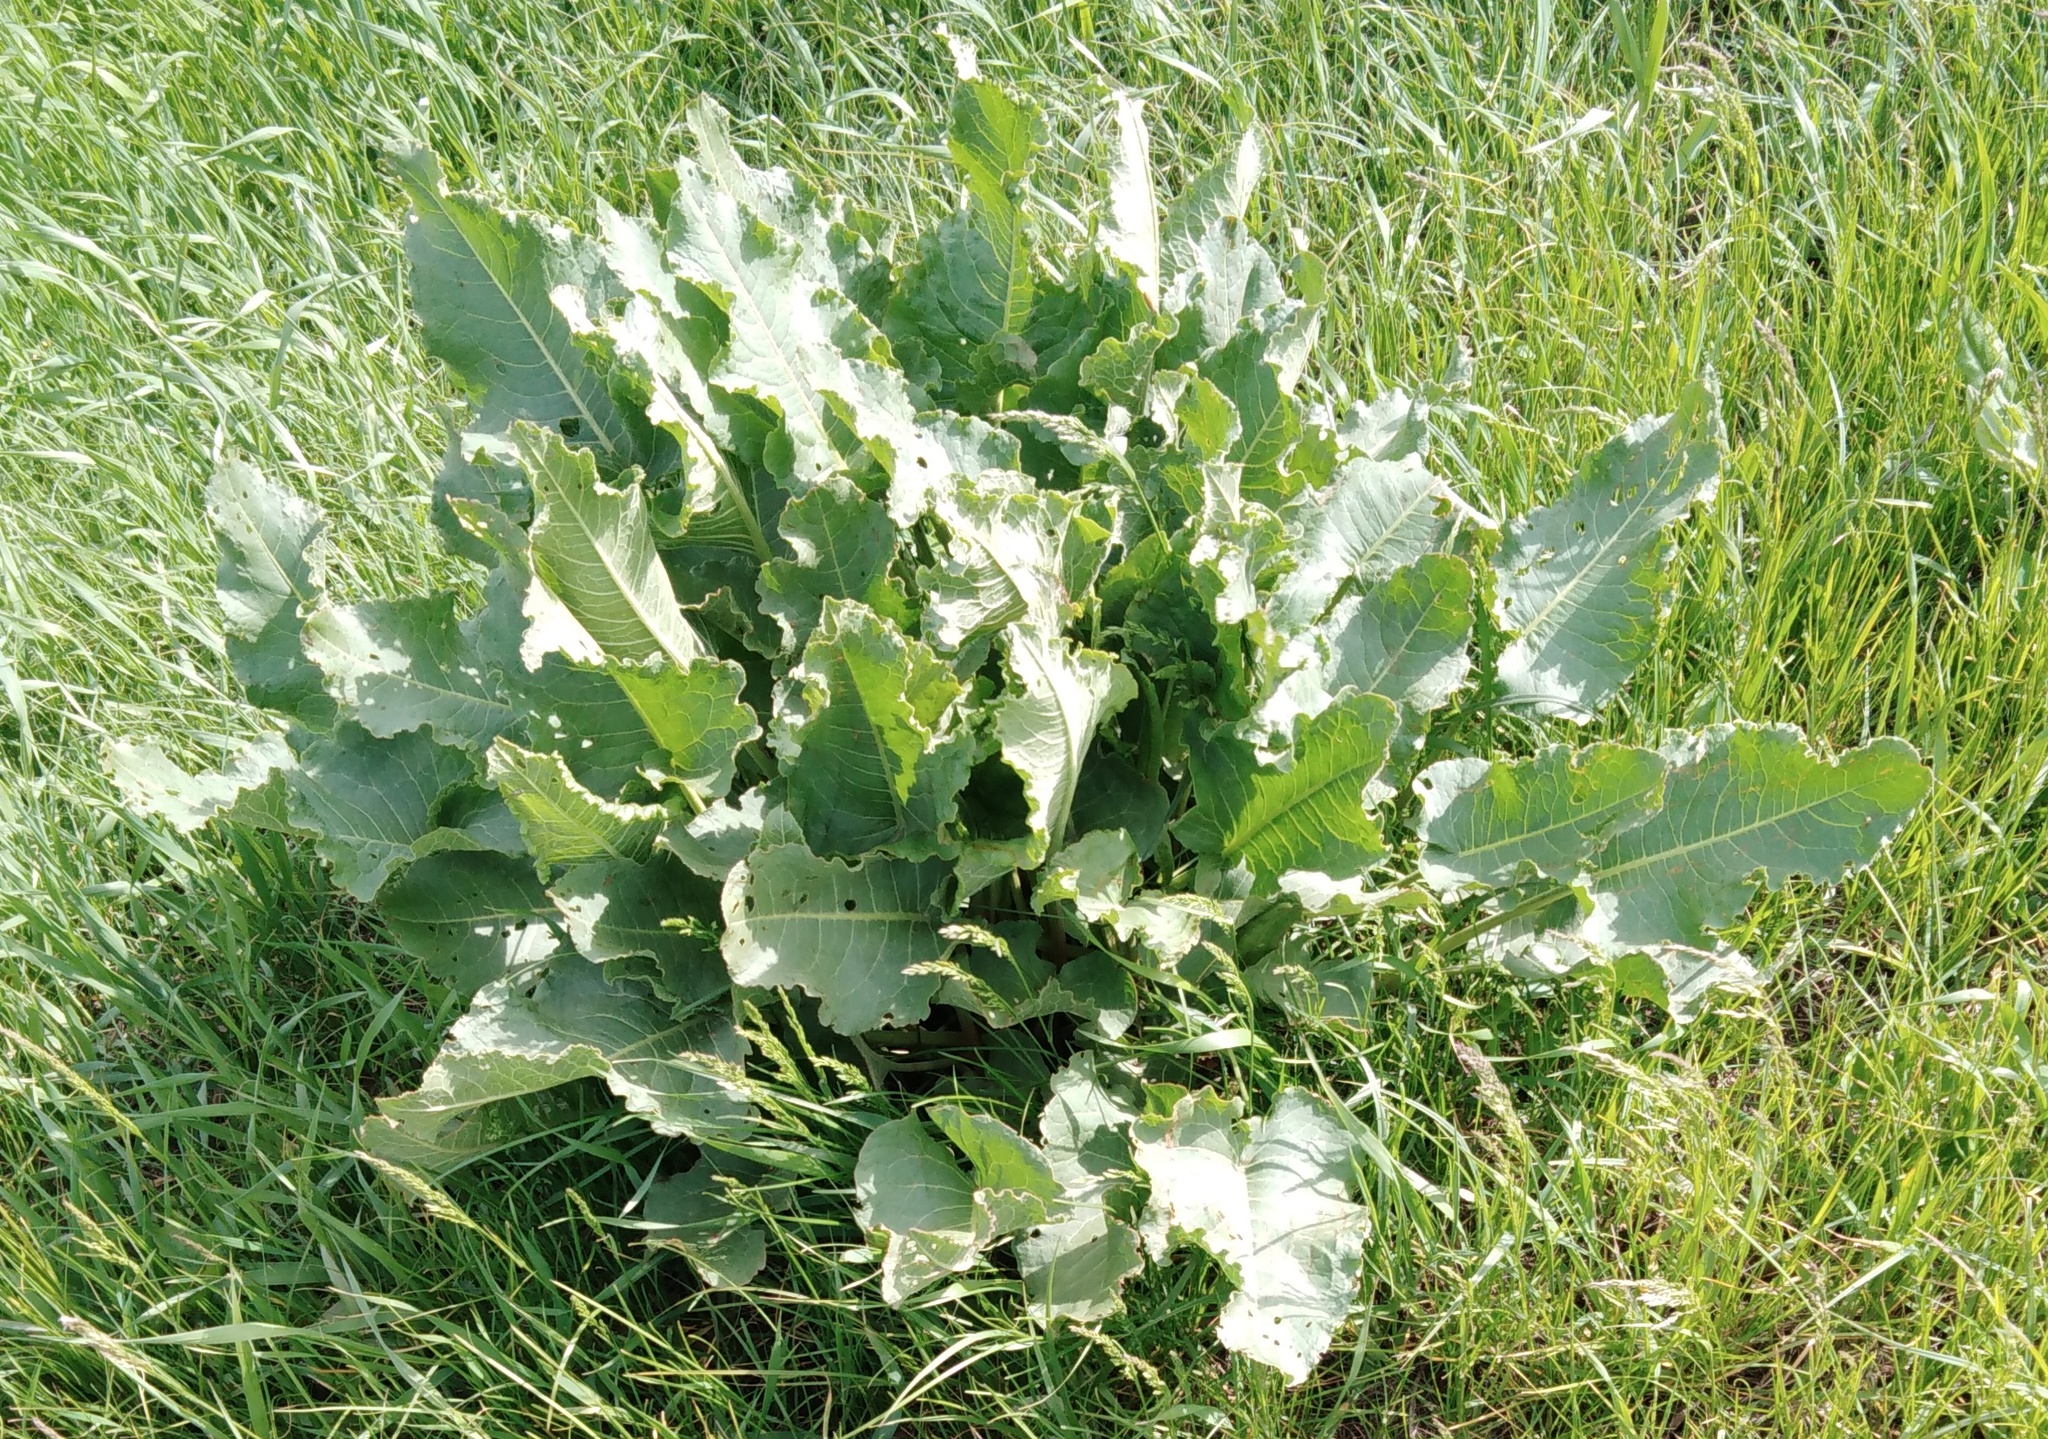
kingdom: Plantae
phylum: Tracheophyta
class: Magnoliopsida
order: Caryophyllales
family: Polygonaceae
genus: Rumex
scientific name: Rumex confertus
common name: Russian dock
